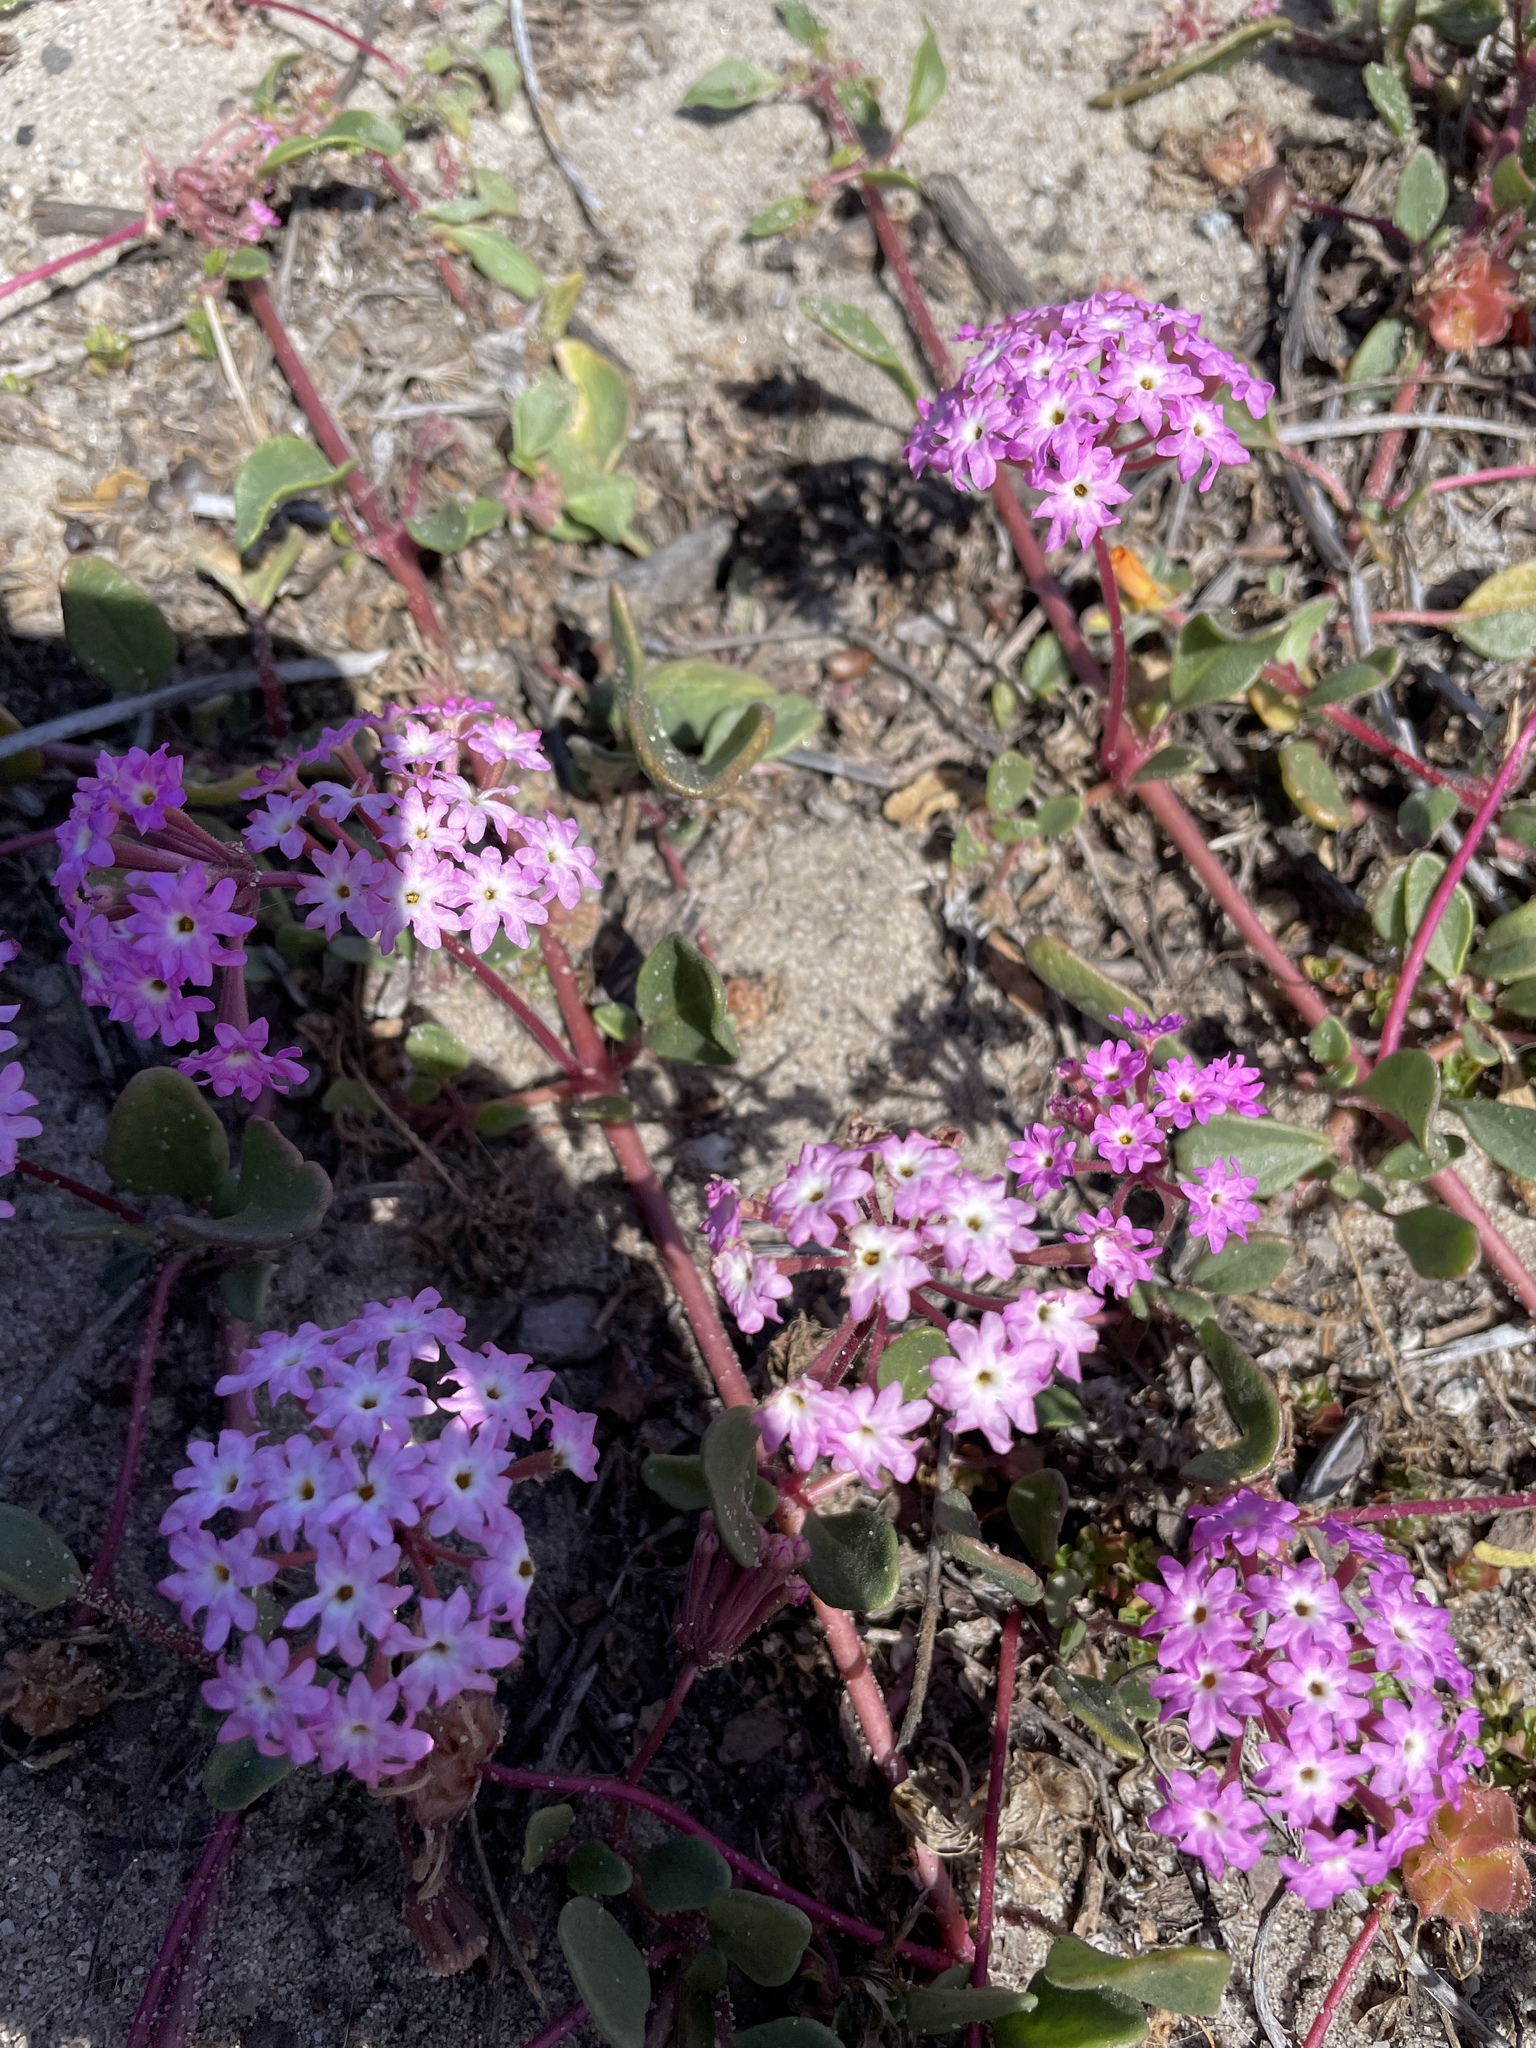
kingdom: Plantae
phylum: Tracheophyta
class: Magnoliopsida
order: Caryophyllales
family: Nyctaginaceae
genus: Abronia
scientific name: Abronia umbellata
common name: Sand-verbena
